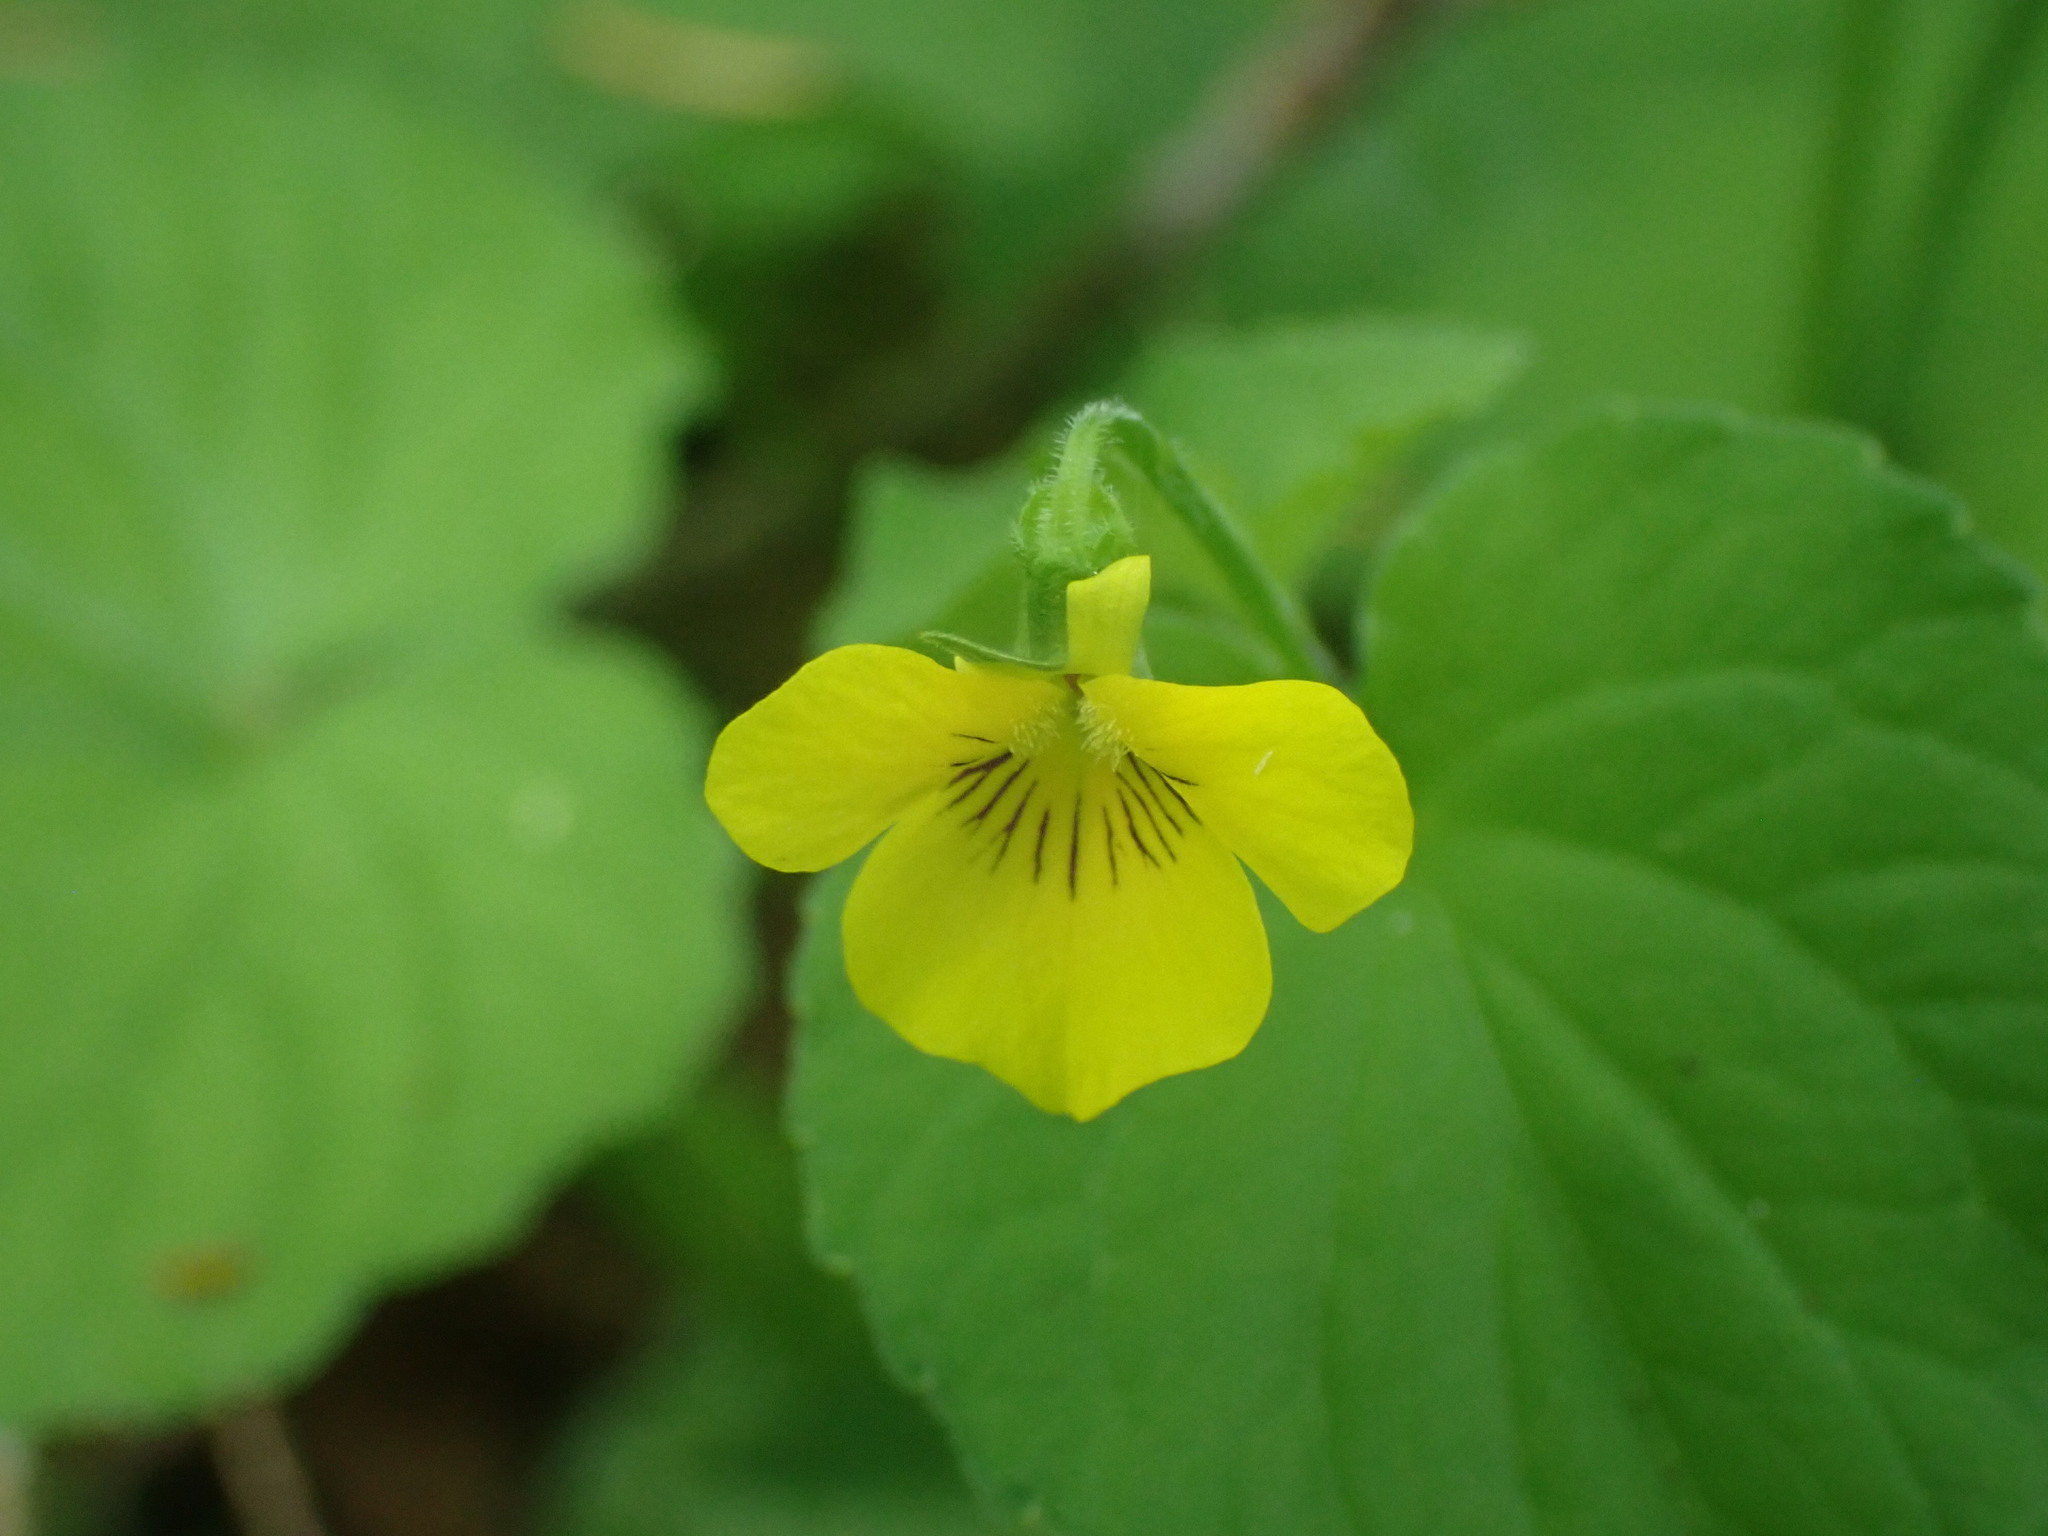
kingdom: Plantae
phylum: Tracheophyta
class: Magnoliopsida
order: Malpighiales
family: Violaceae
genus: Viola
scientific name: Viola glabella
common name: Stream violet
